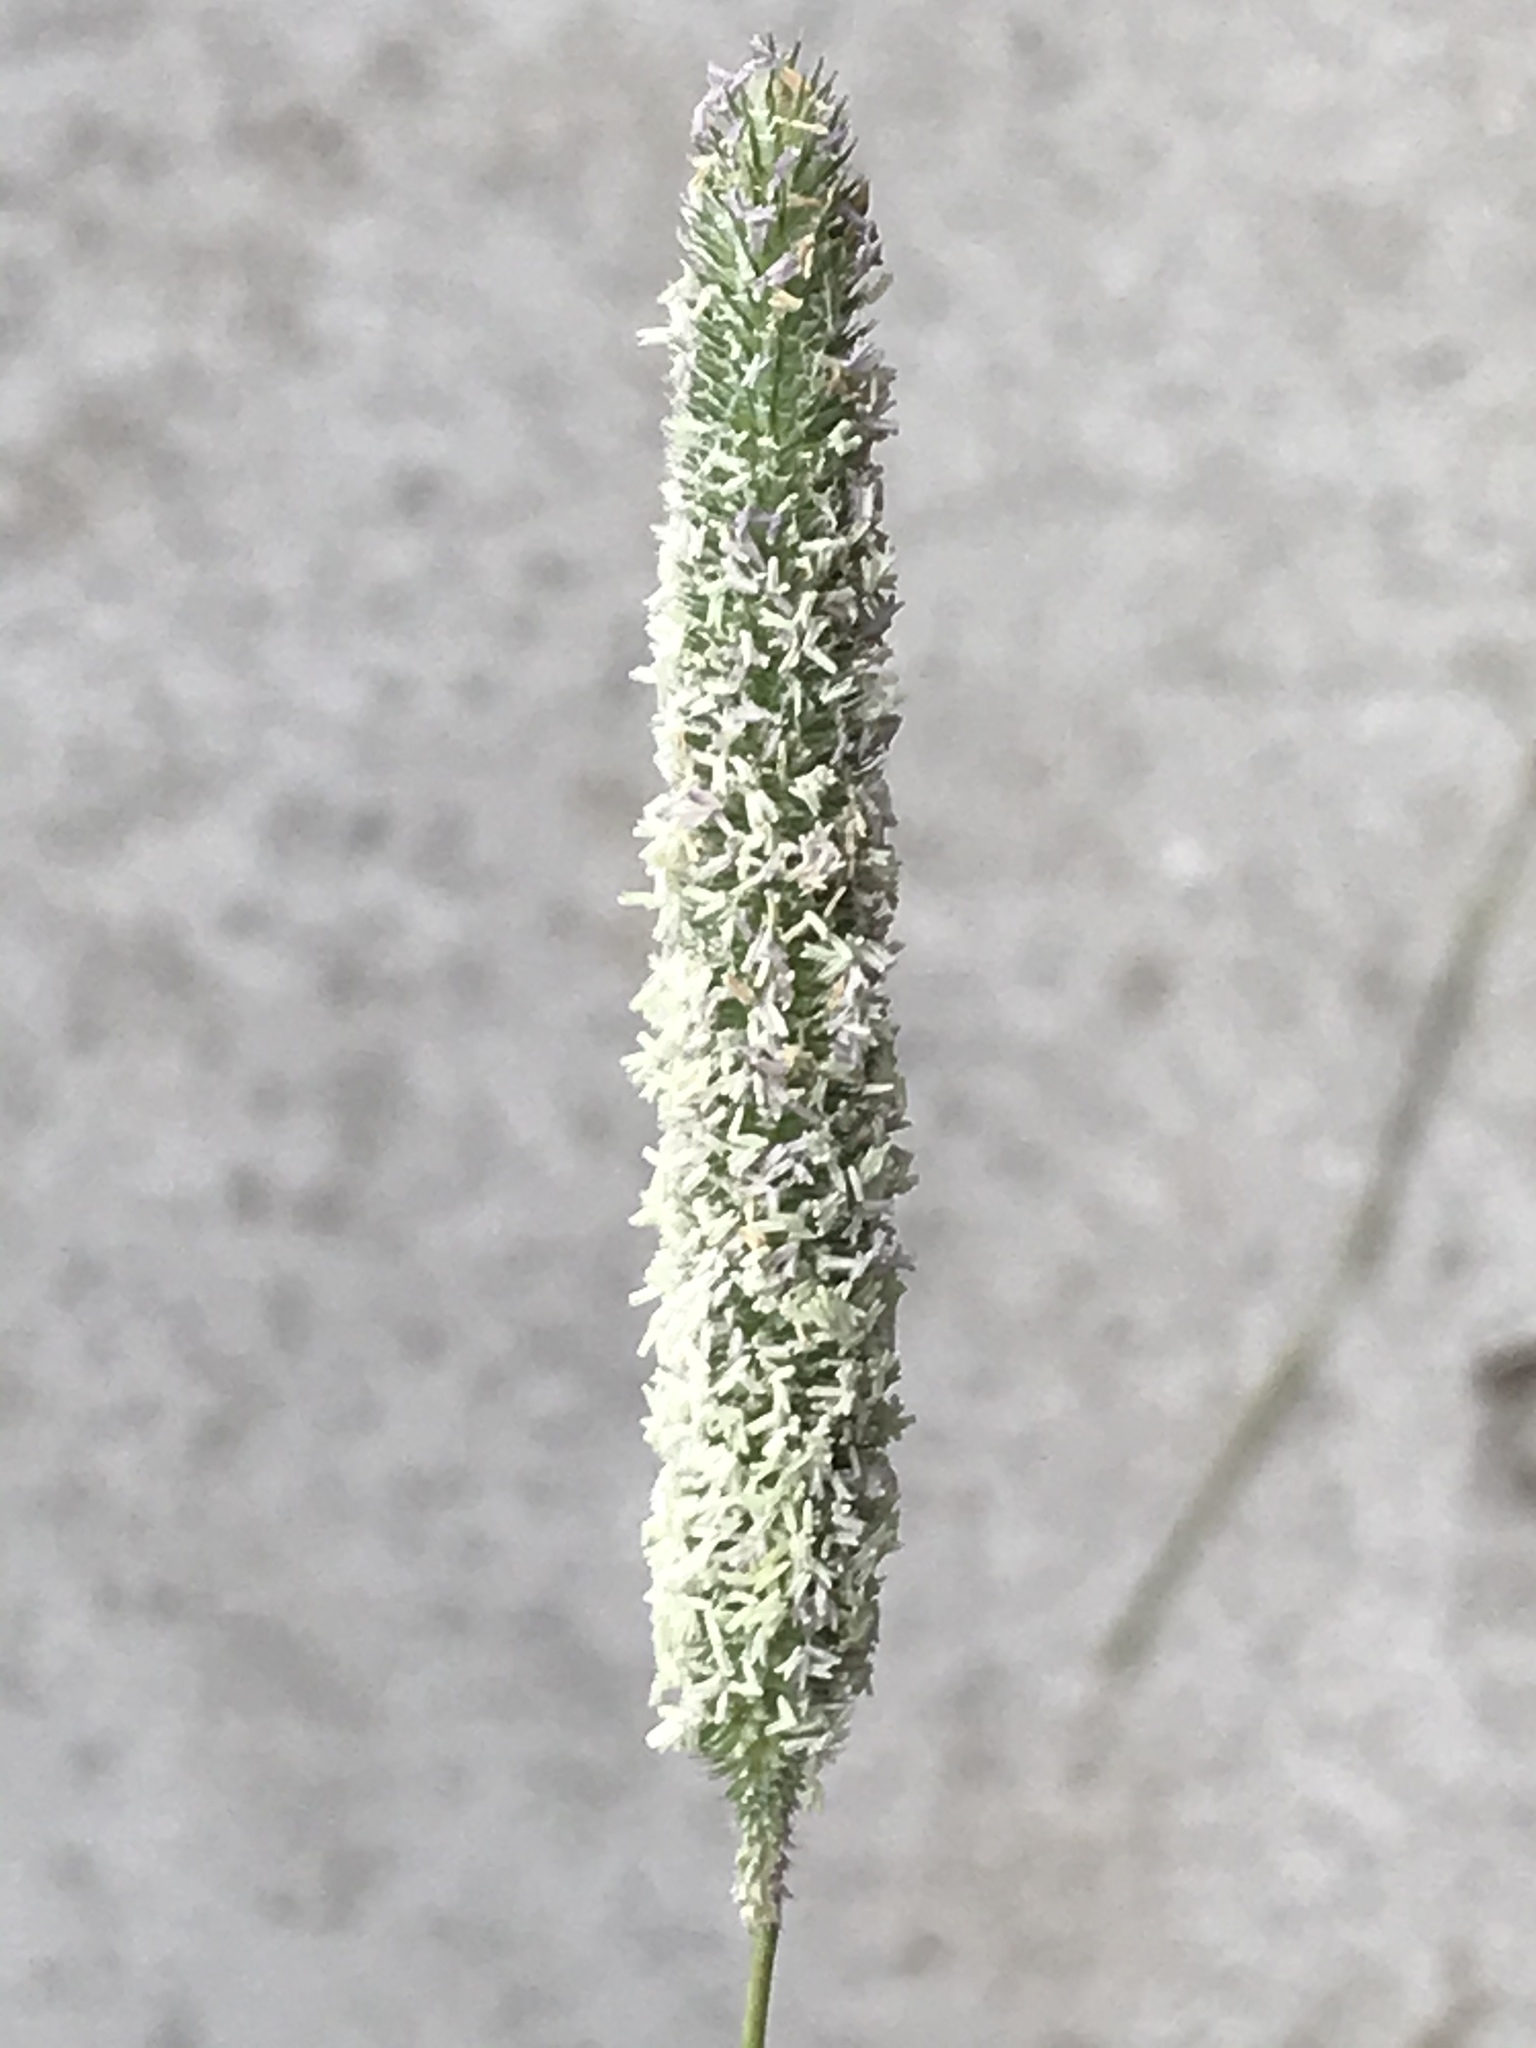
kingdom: Plantae
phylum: Tracheophyta
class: Liliopsida
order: Poales
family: Poaceae
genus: Phleum
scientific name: Phleum pratense
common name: Timothy grass
